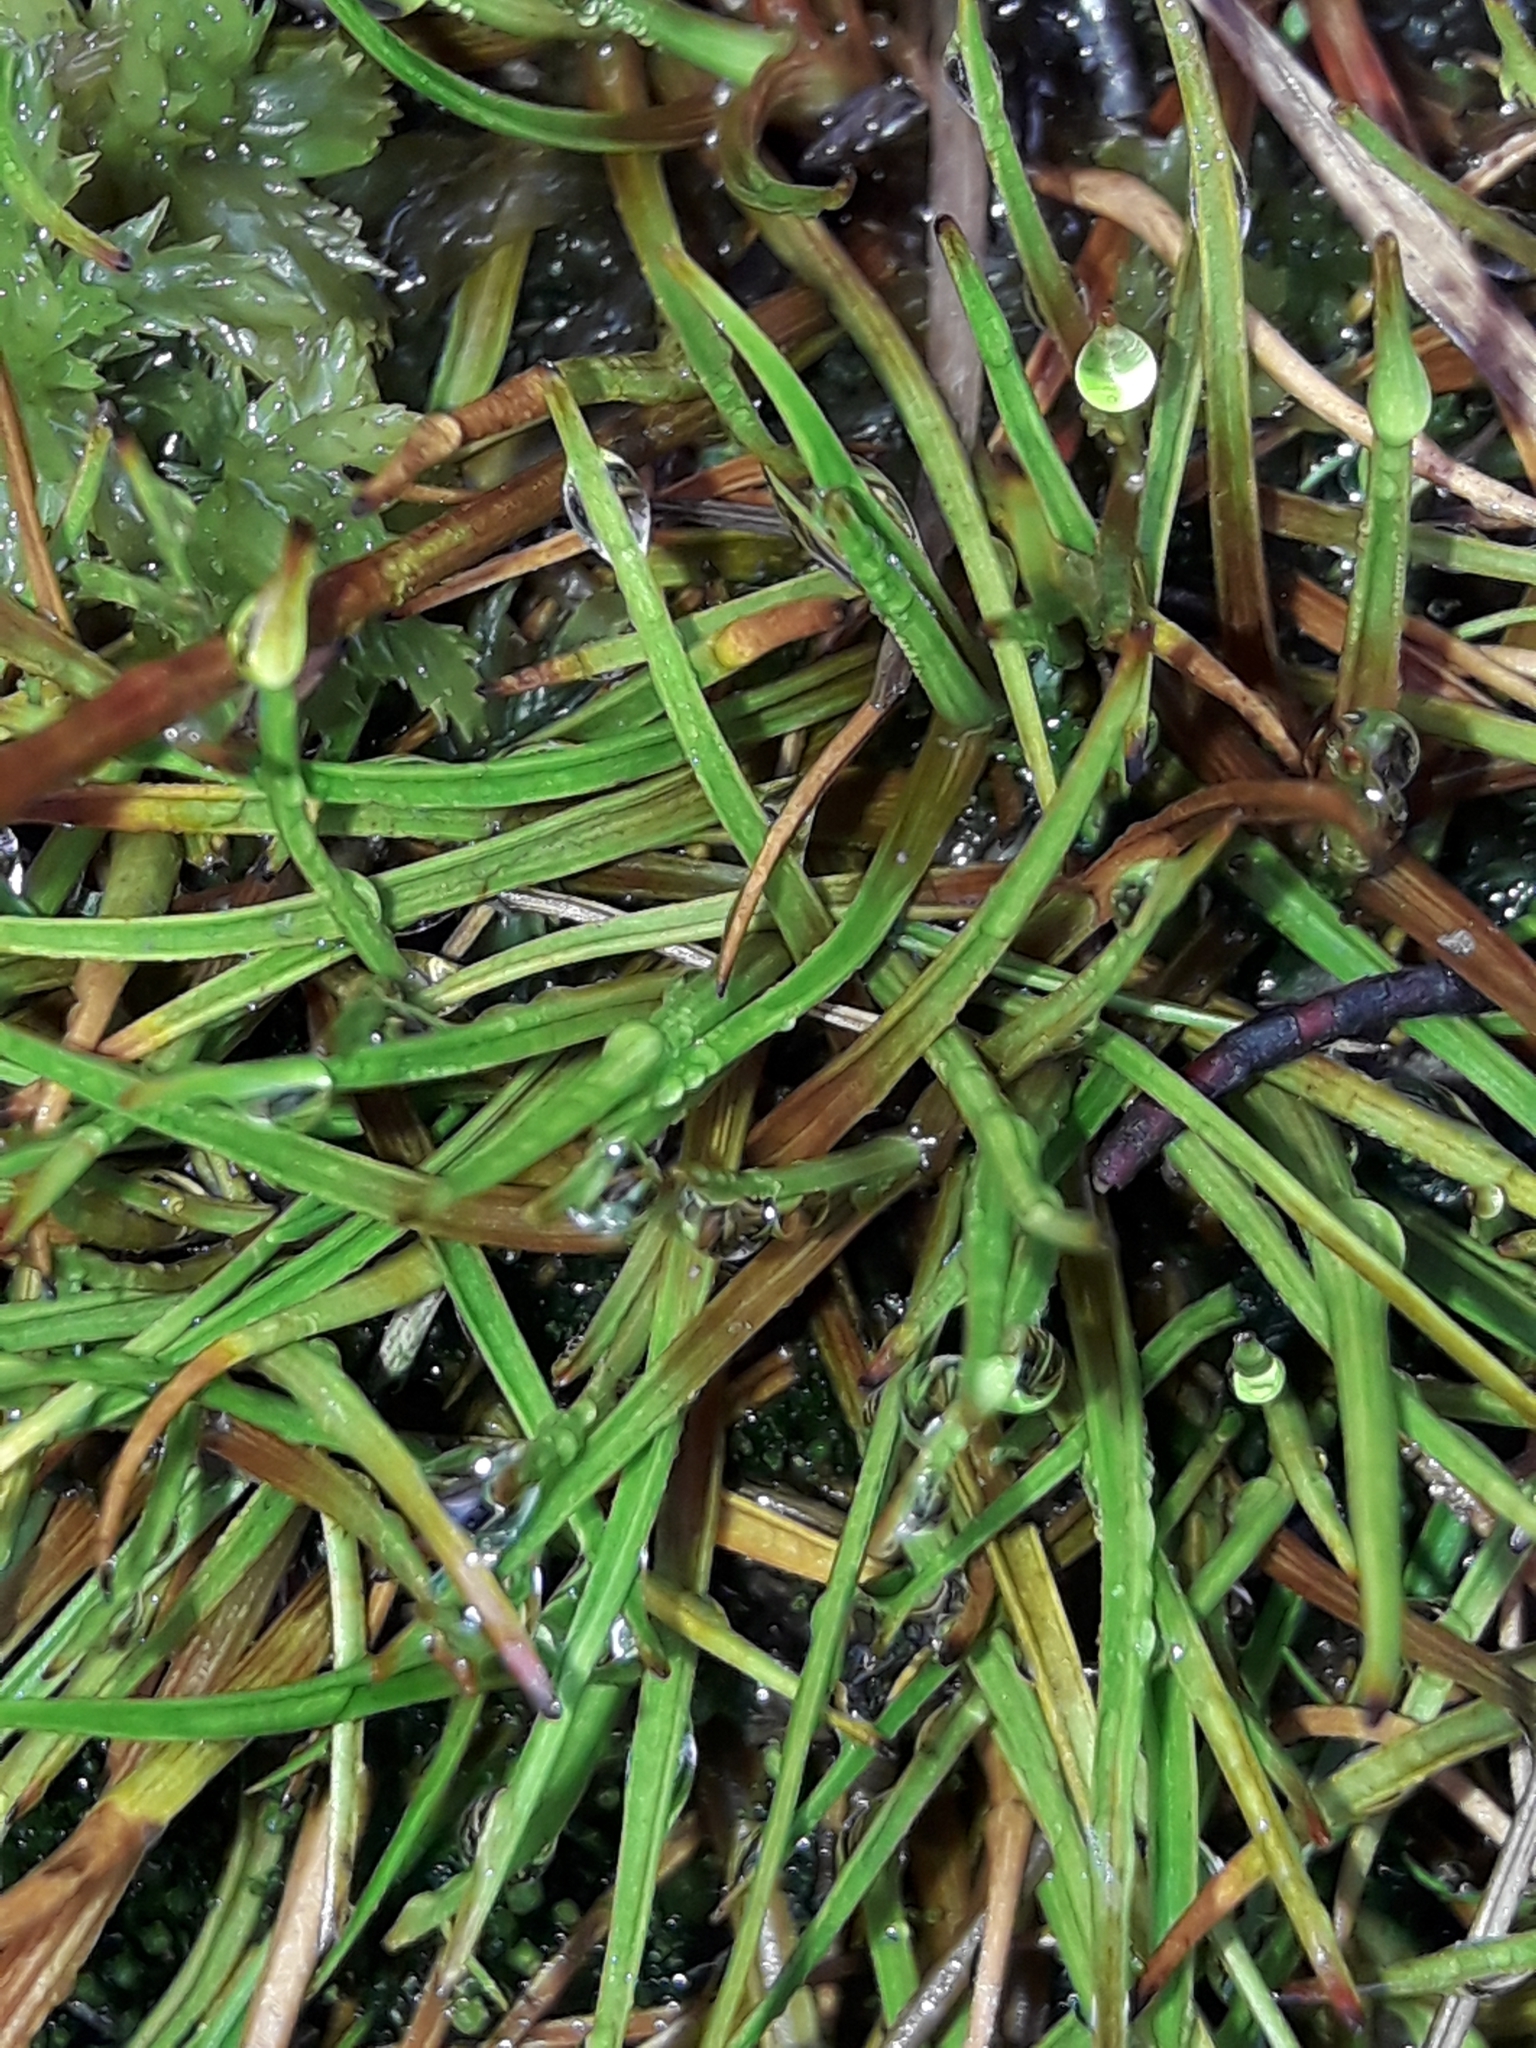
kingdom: Plantae
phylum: Tracheophyta
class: Liliopsida
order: Poales
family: Juncaceae
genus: Juncus
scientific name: Juncus antarcticus
